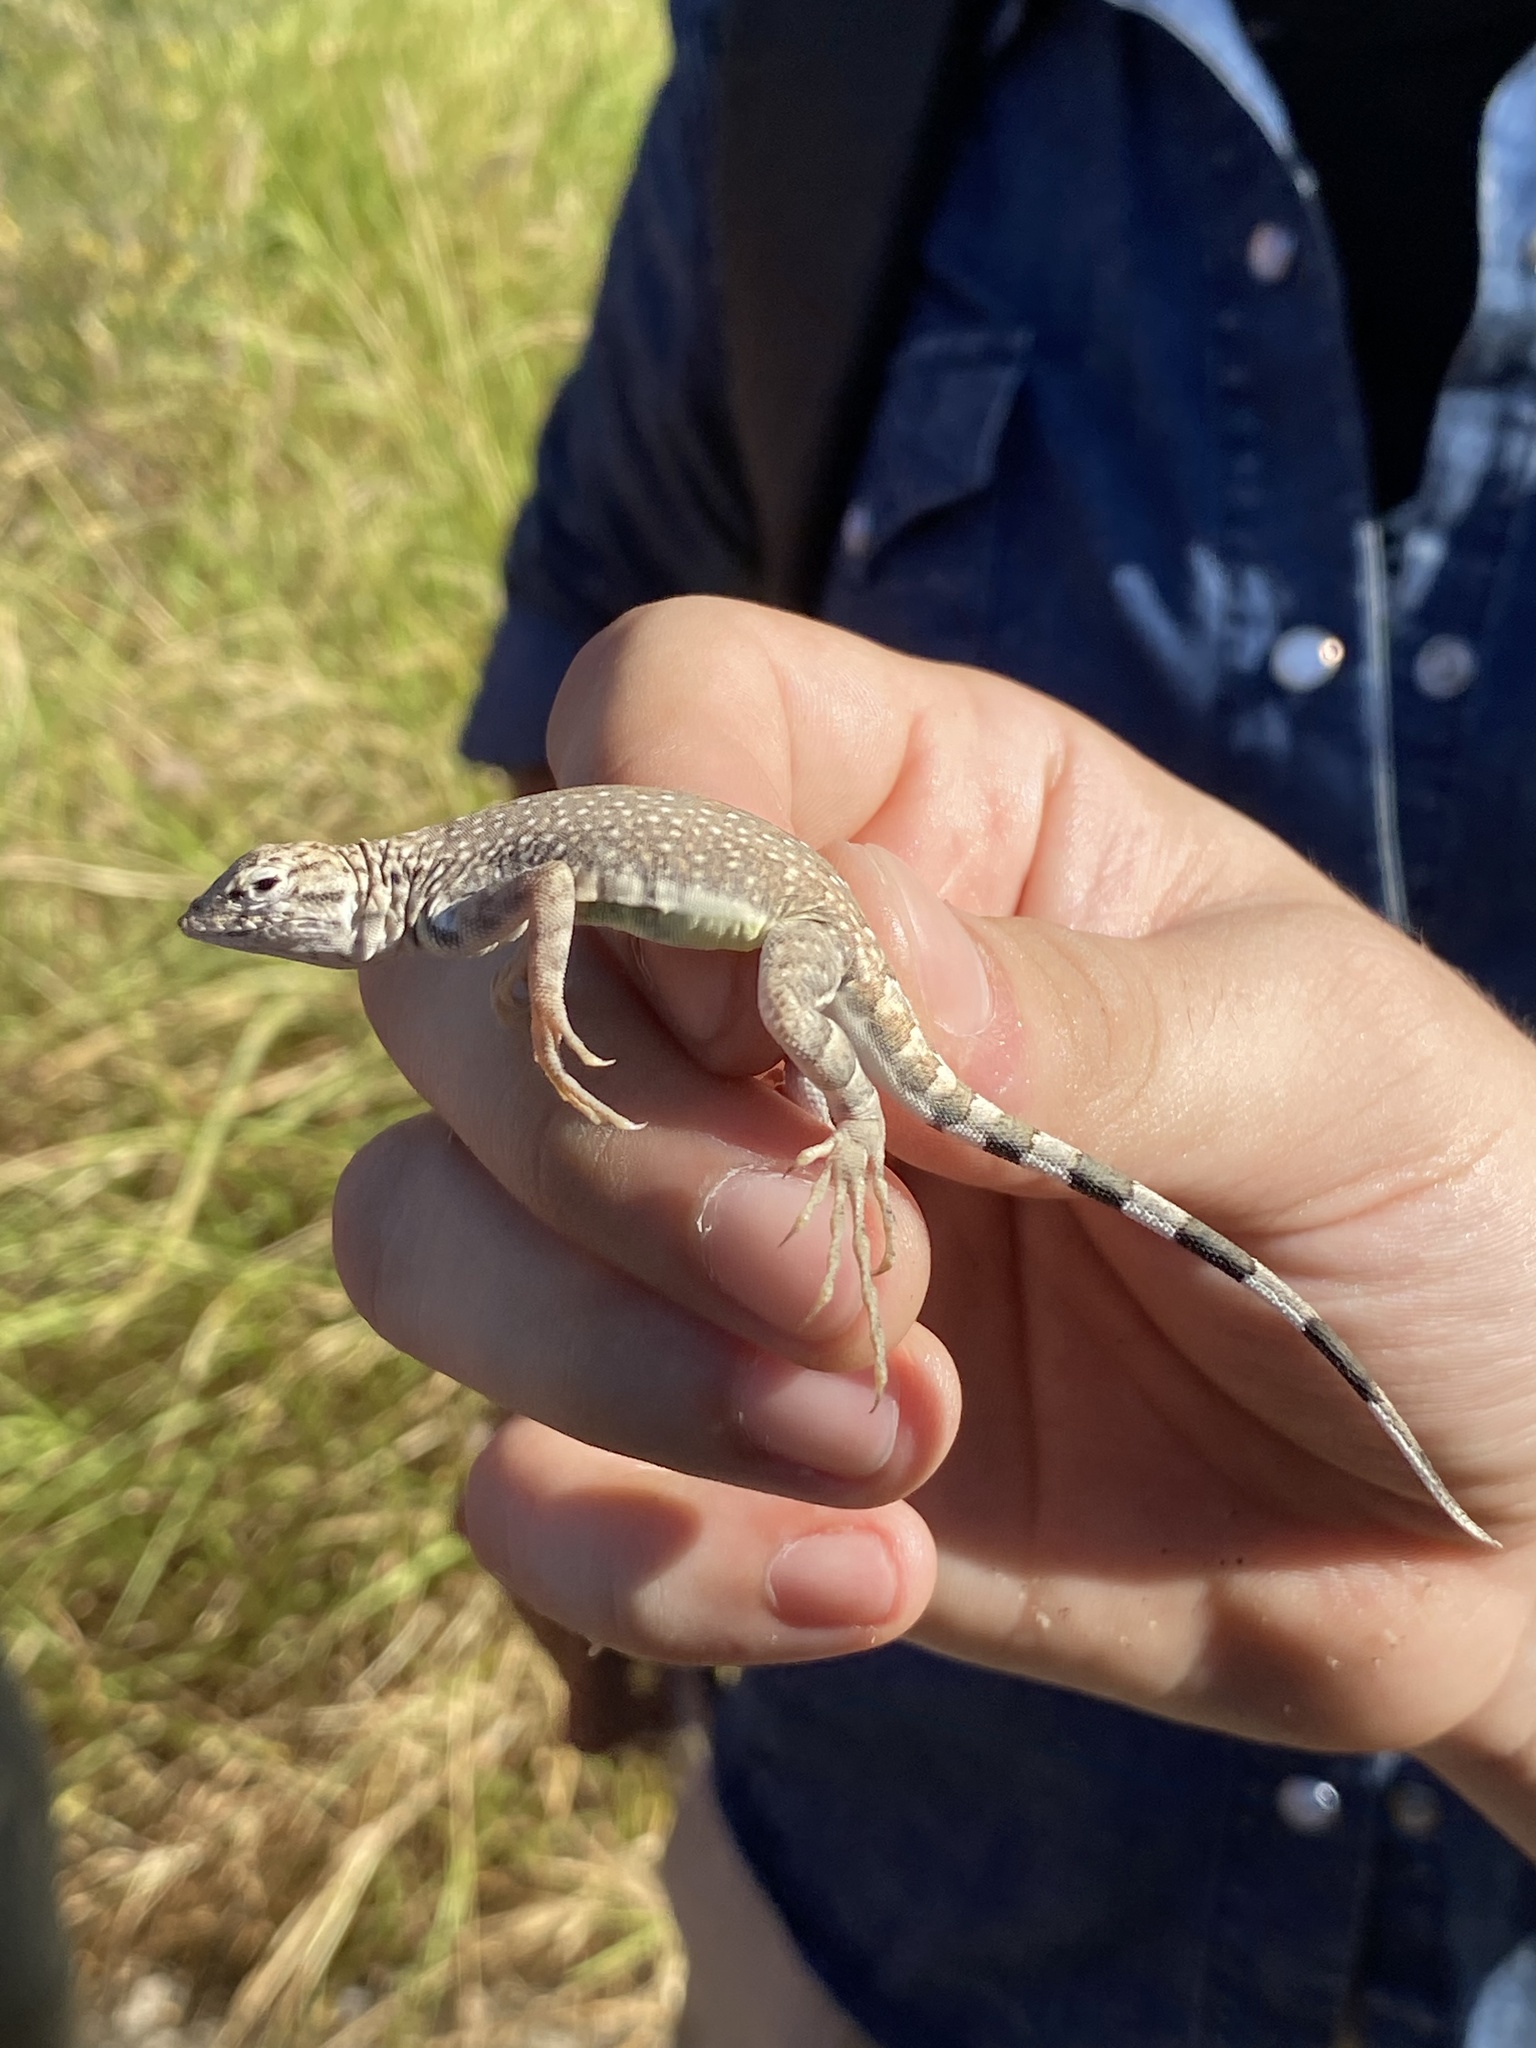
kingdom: Animalia
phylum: Chordata
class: Squamata
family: Phrynosomatidae
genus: Callisaurus
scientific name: Callisaurus draconoides
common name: Zebra-tailed lizard
